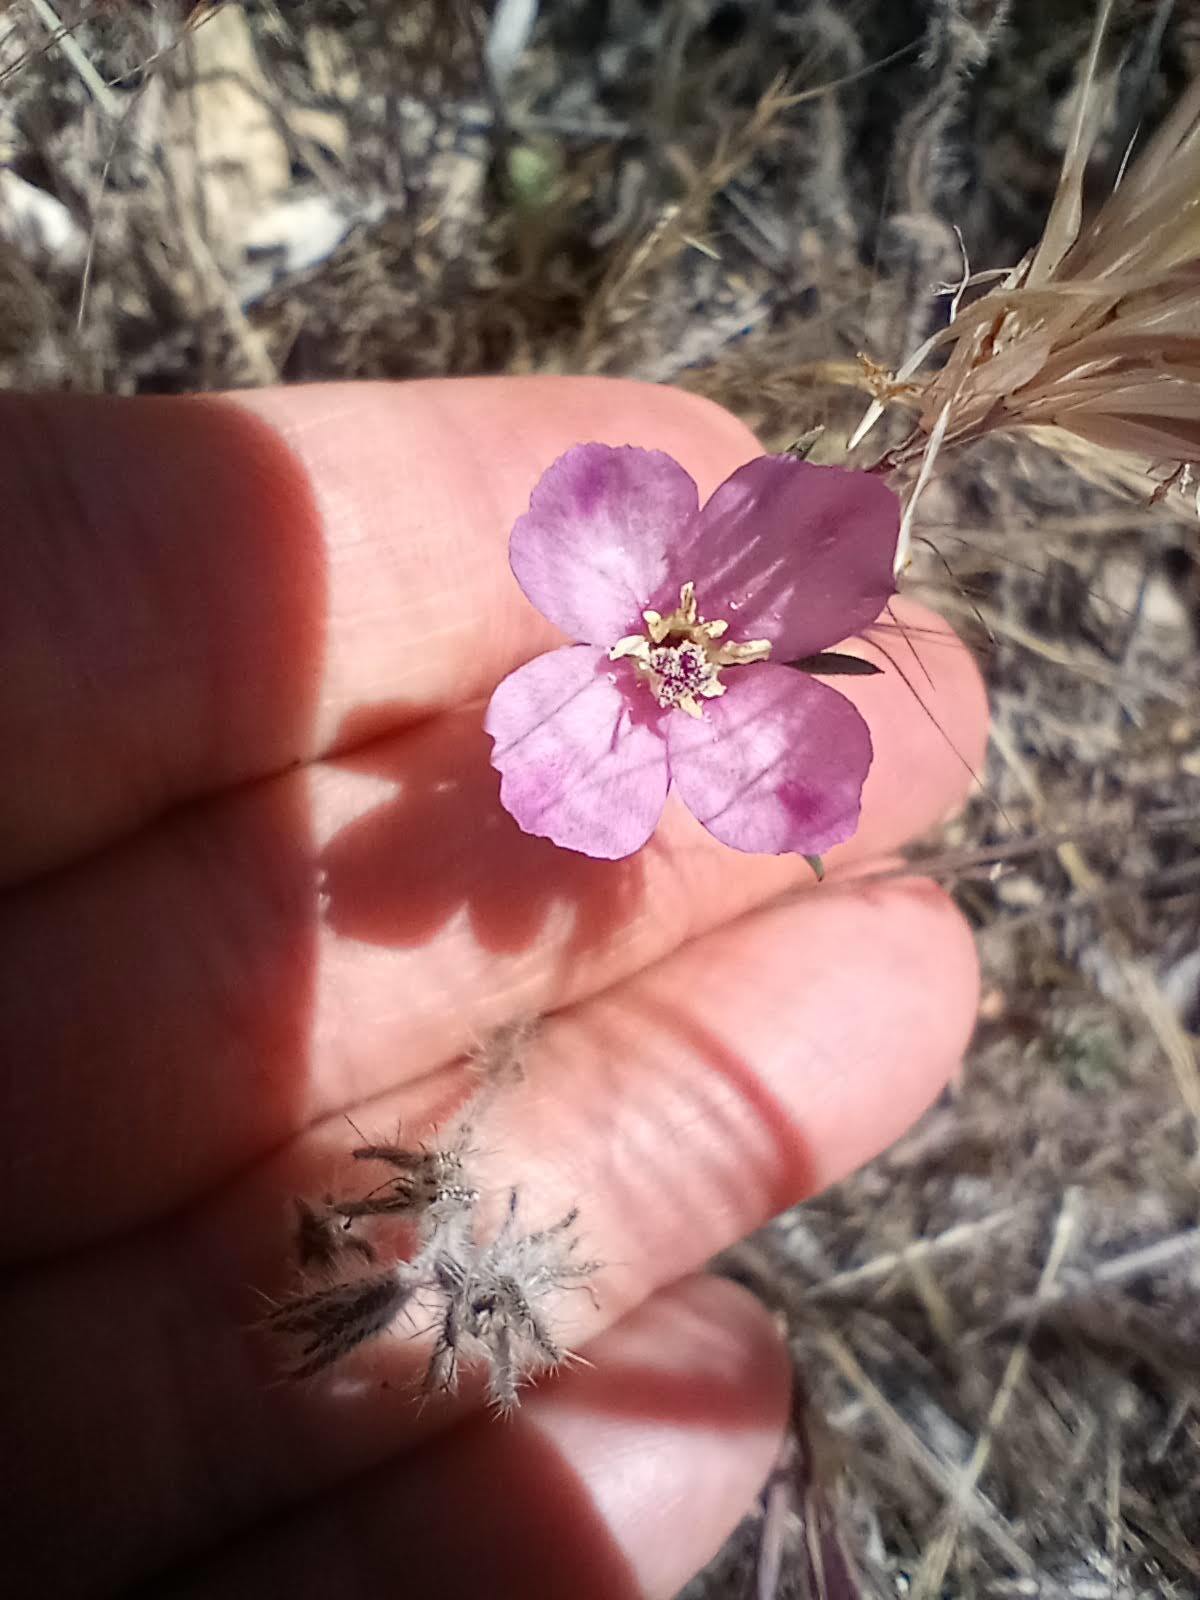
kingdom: Plantae
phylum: Tracheophyta
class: Magnoliopsida
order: Myrtales
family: Onagraceae
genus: Clarkia
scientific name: Clarkia purpurea
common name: Purple clarkia
